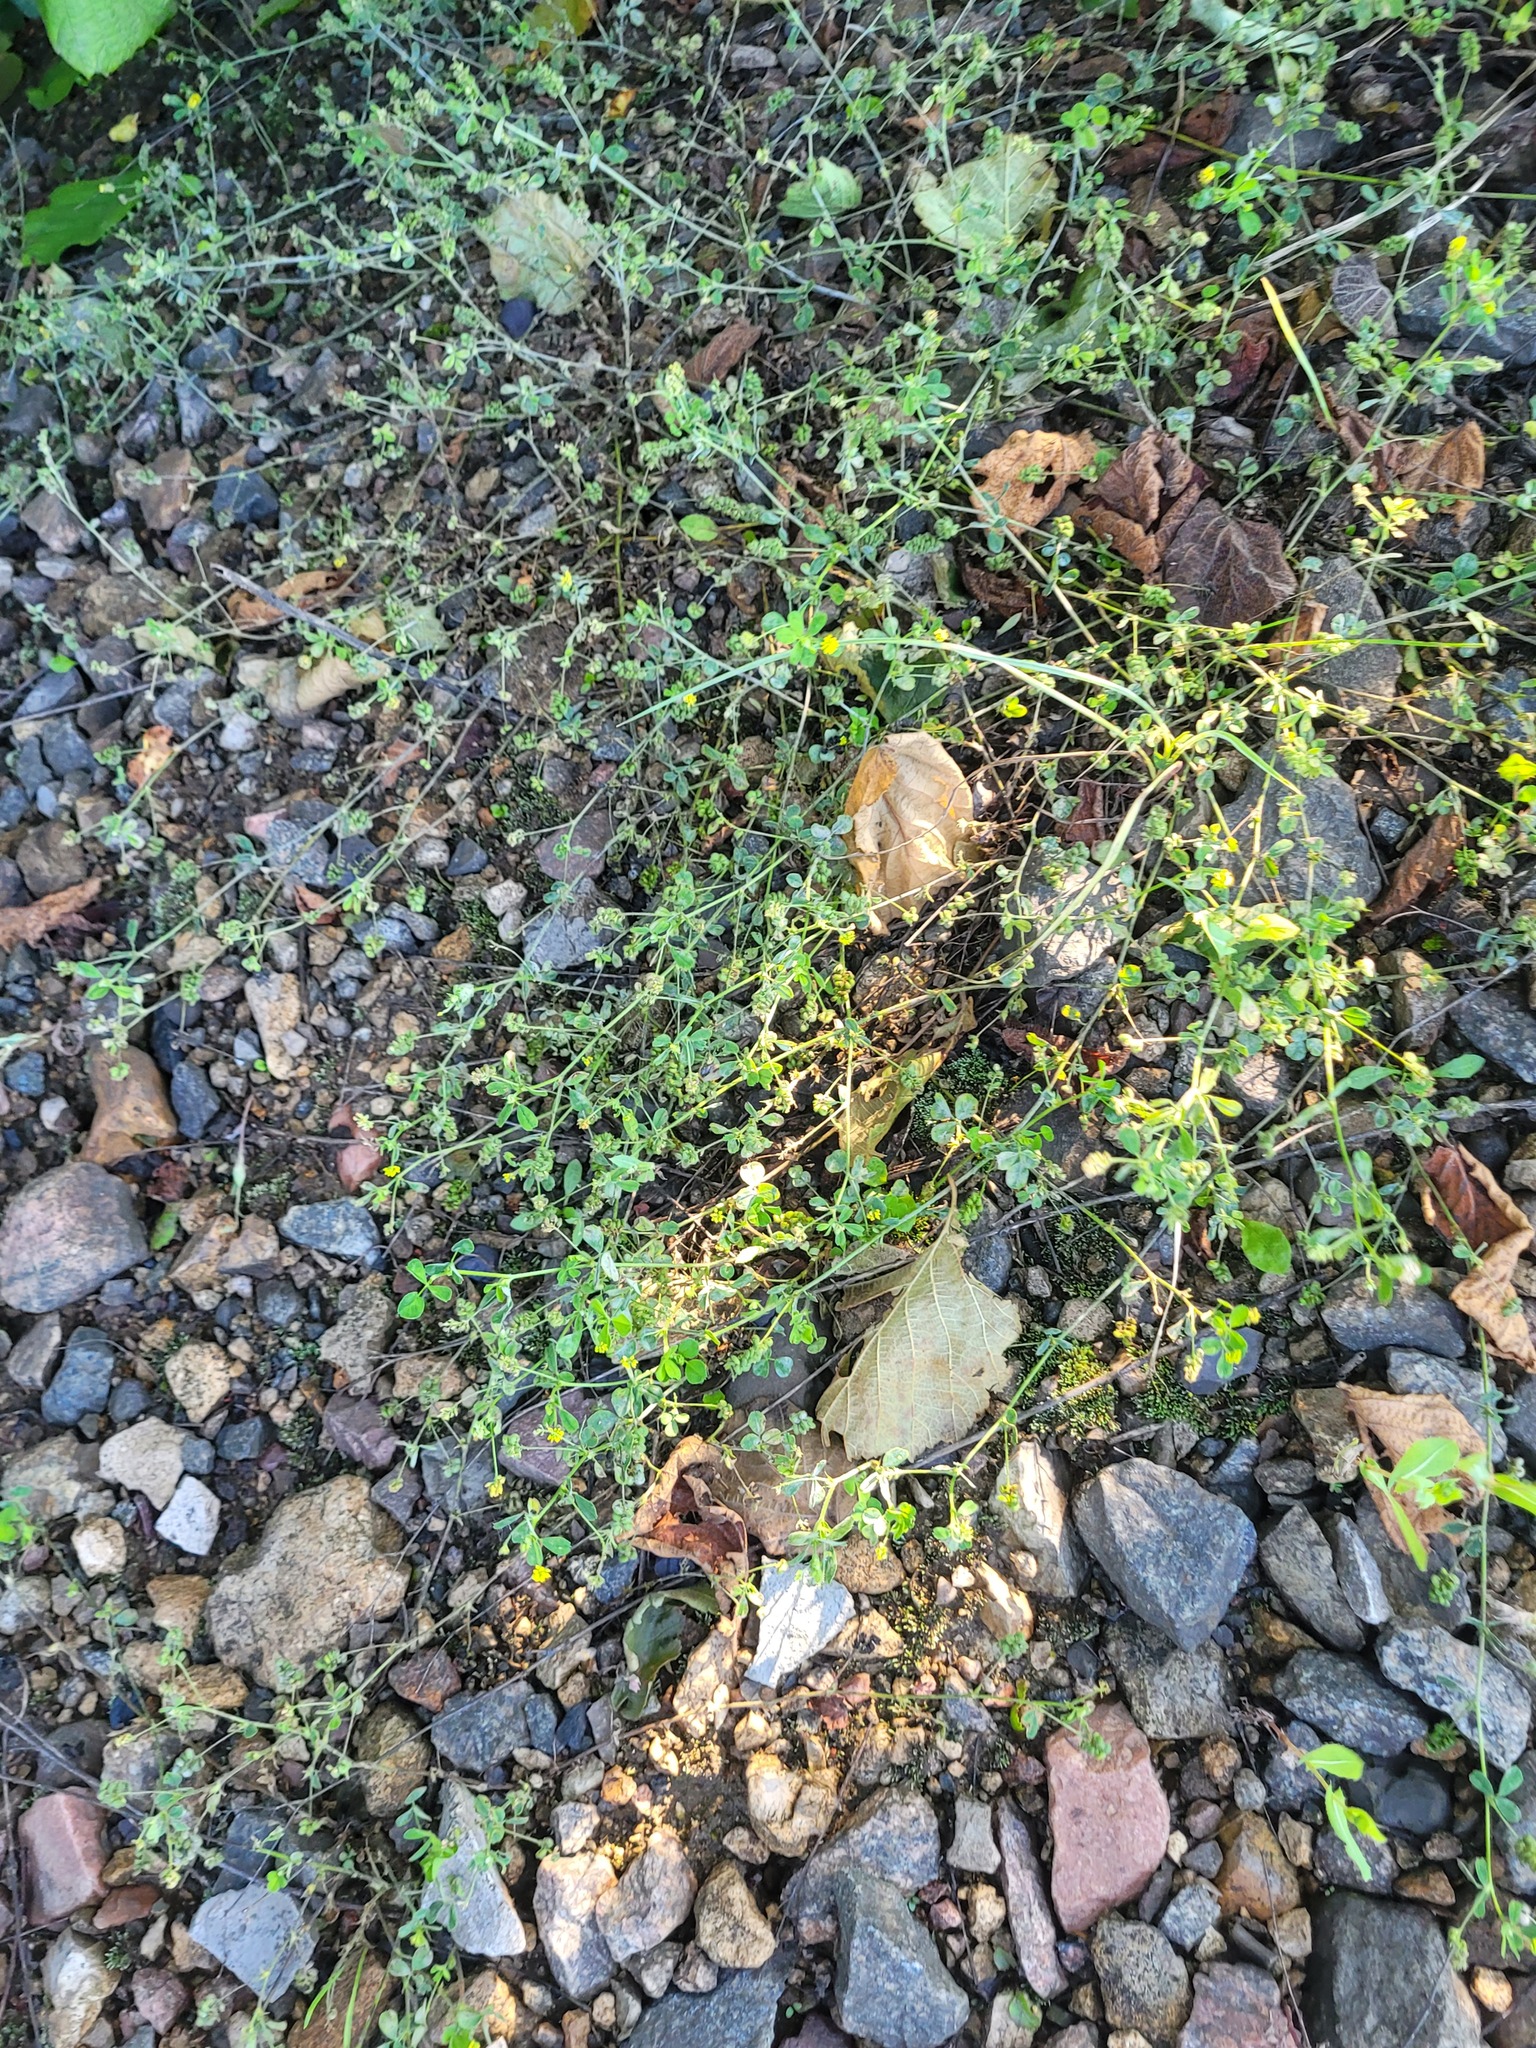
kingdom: Plantae
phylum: Tracheophyta
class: Magnoliopsida
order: Fabales
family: Fabaceae
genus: Medicago
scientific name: Medicago lupulina
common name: Black medick
